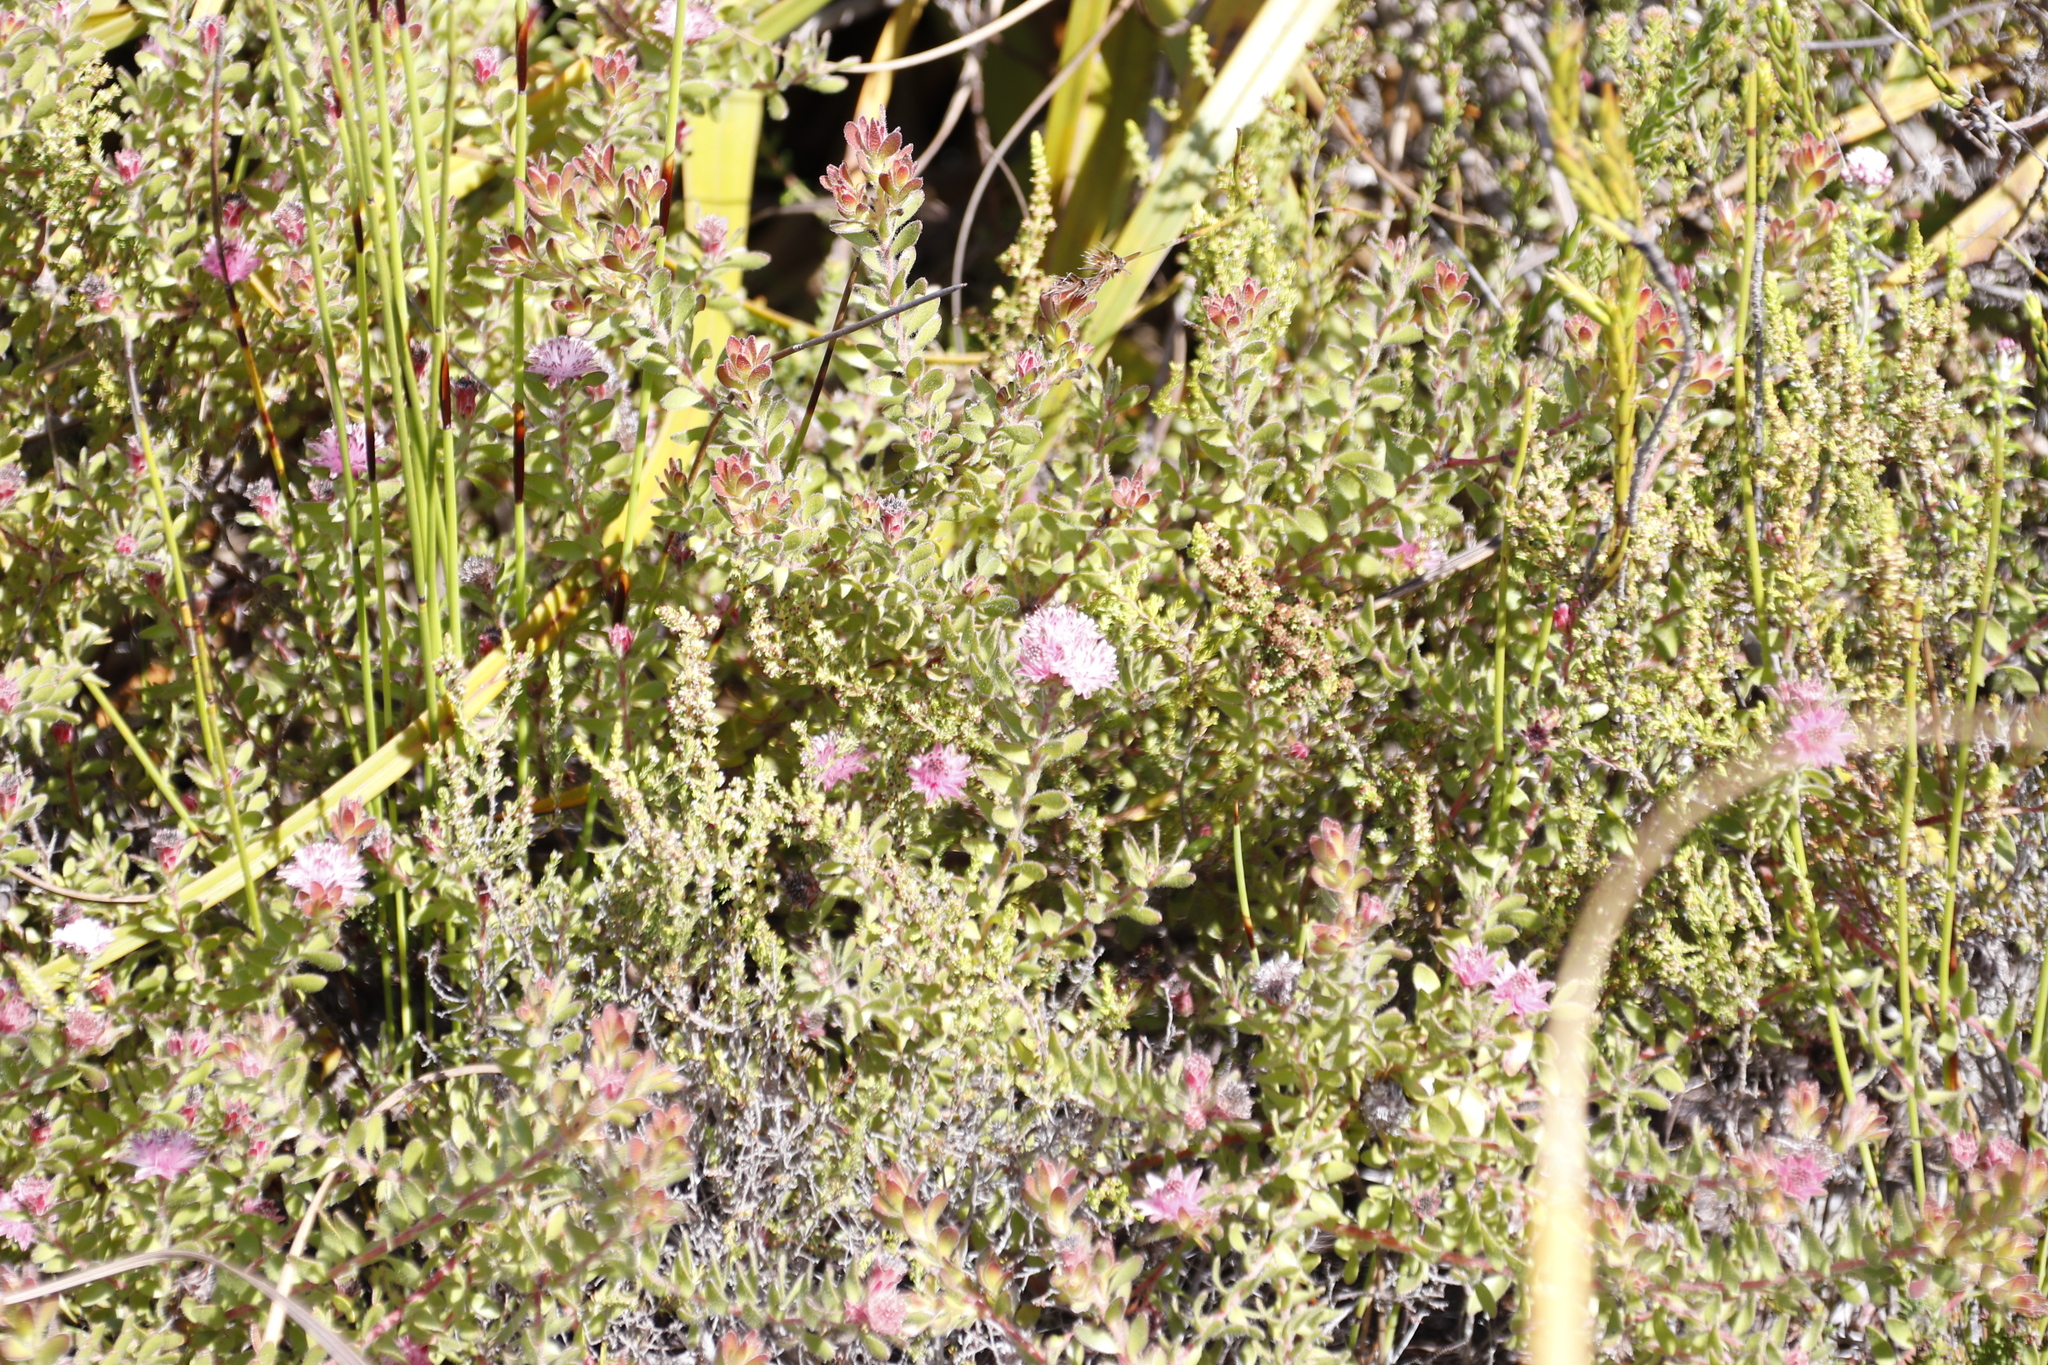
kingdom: Plantae
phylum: Tracheophyta
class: Magnoliopsida
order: Proteales
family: Proteaceae
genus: Diastella
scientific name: Diastella divaricata
